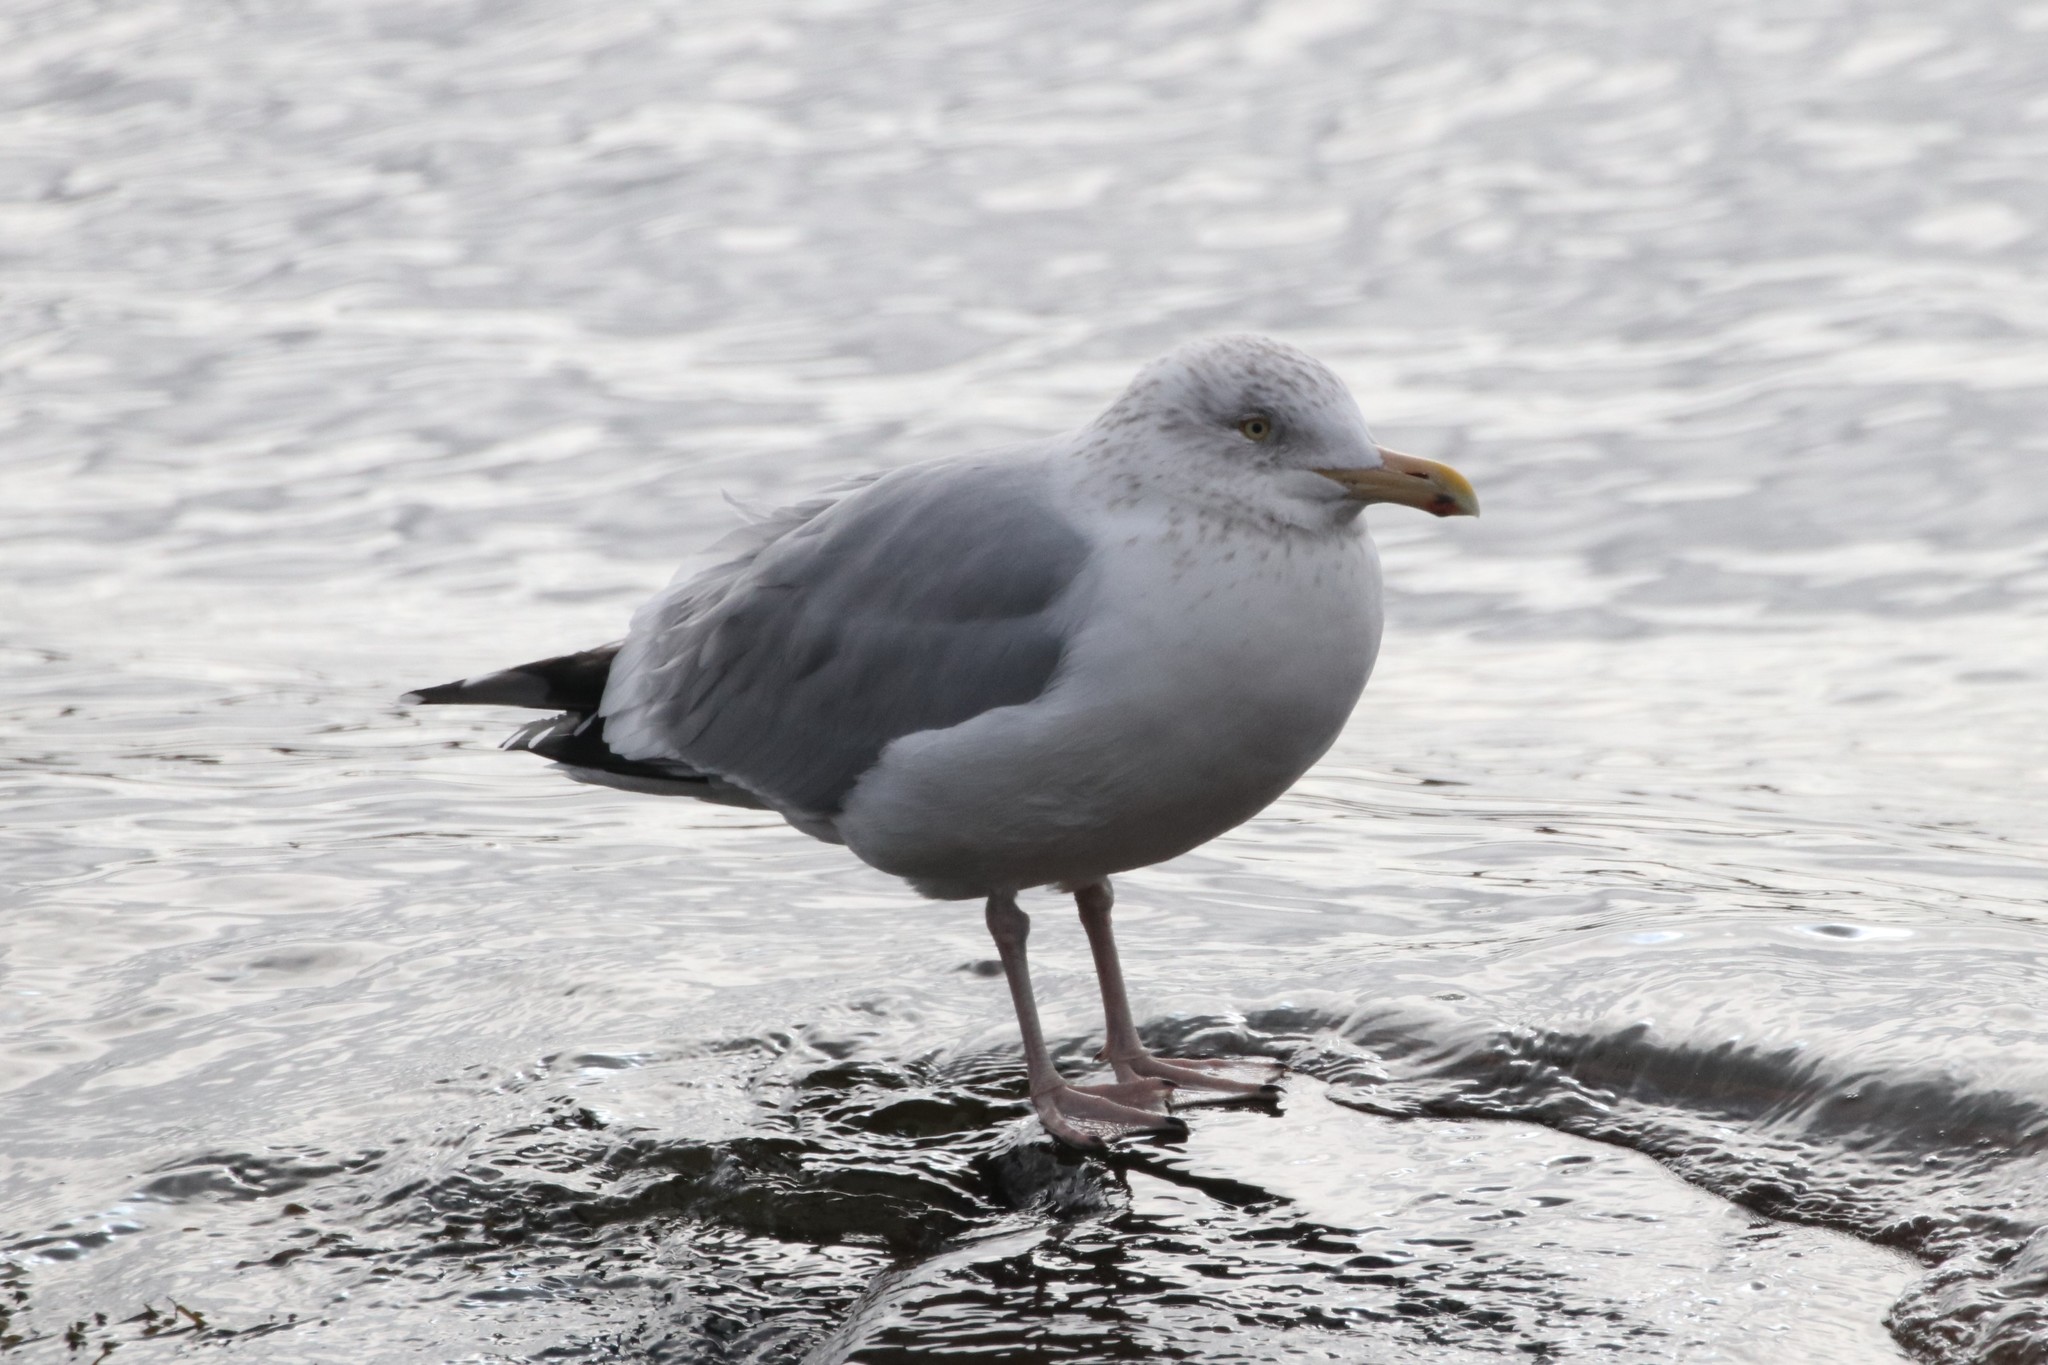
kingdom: Animalia
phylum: Chordata
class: Aves
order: Charadriiformes
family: Laridae
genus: Larus
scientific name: Larus argentatus
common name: Herring gull
